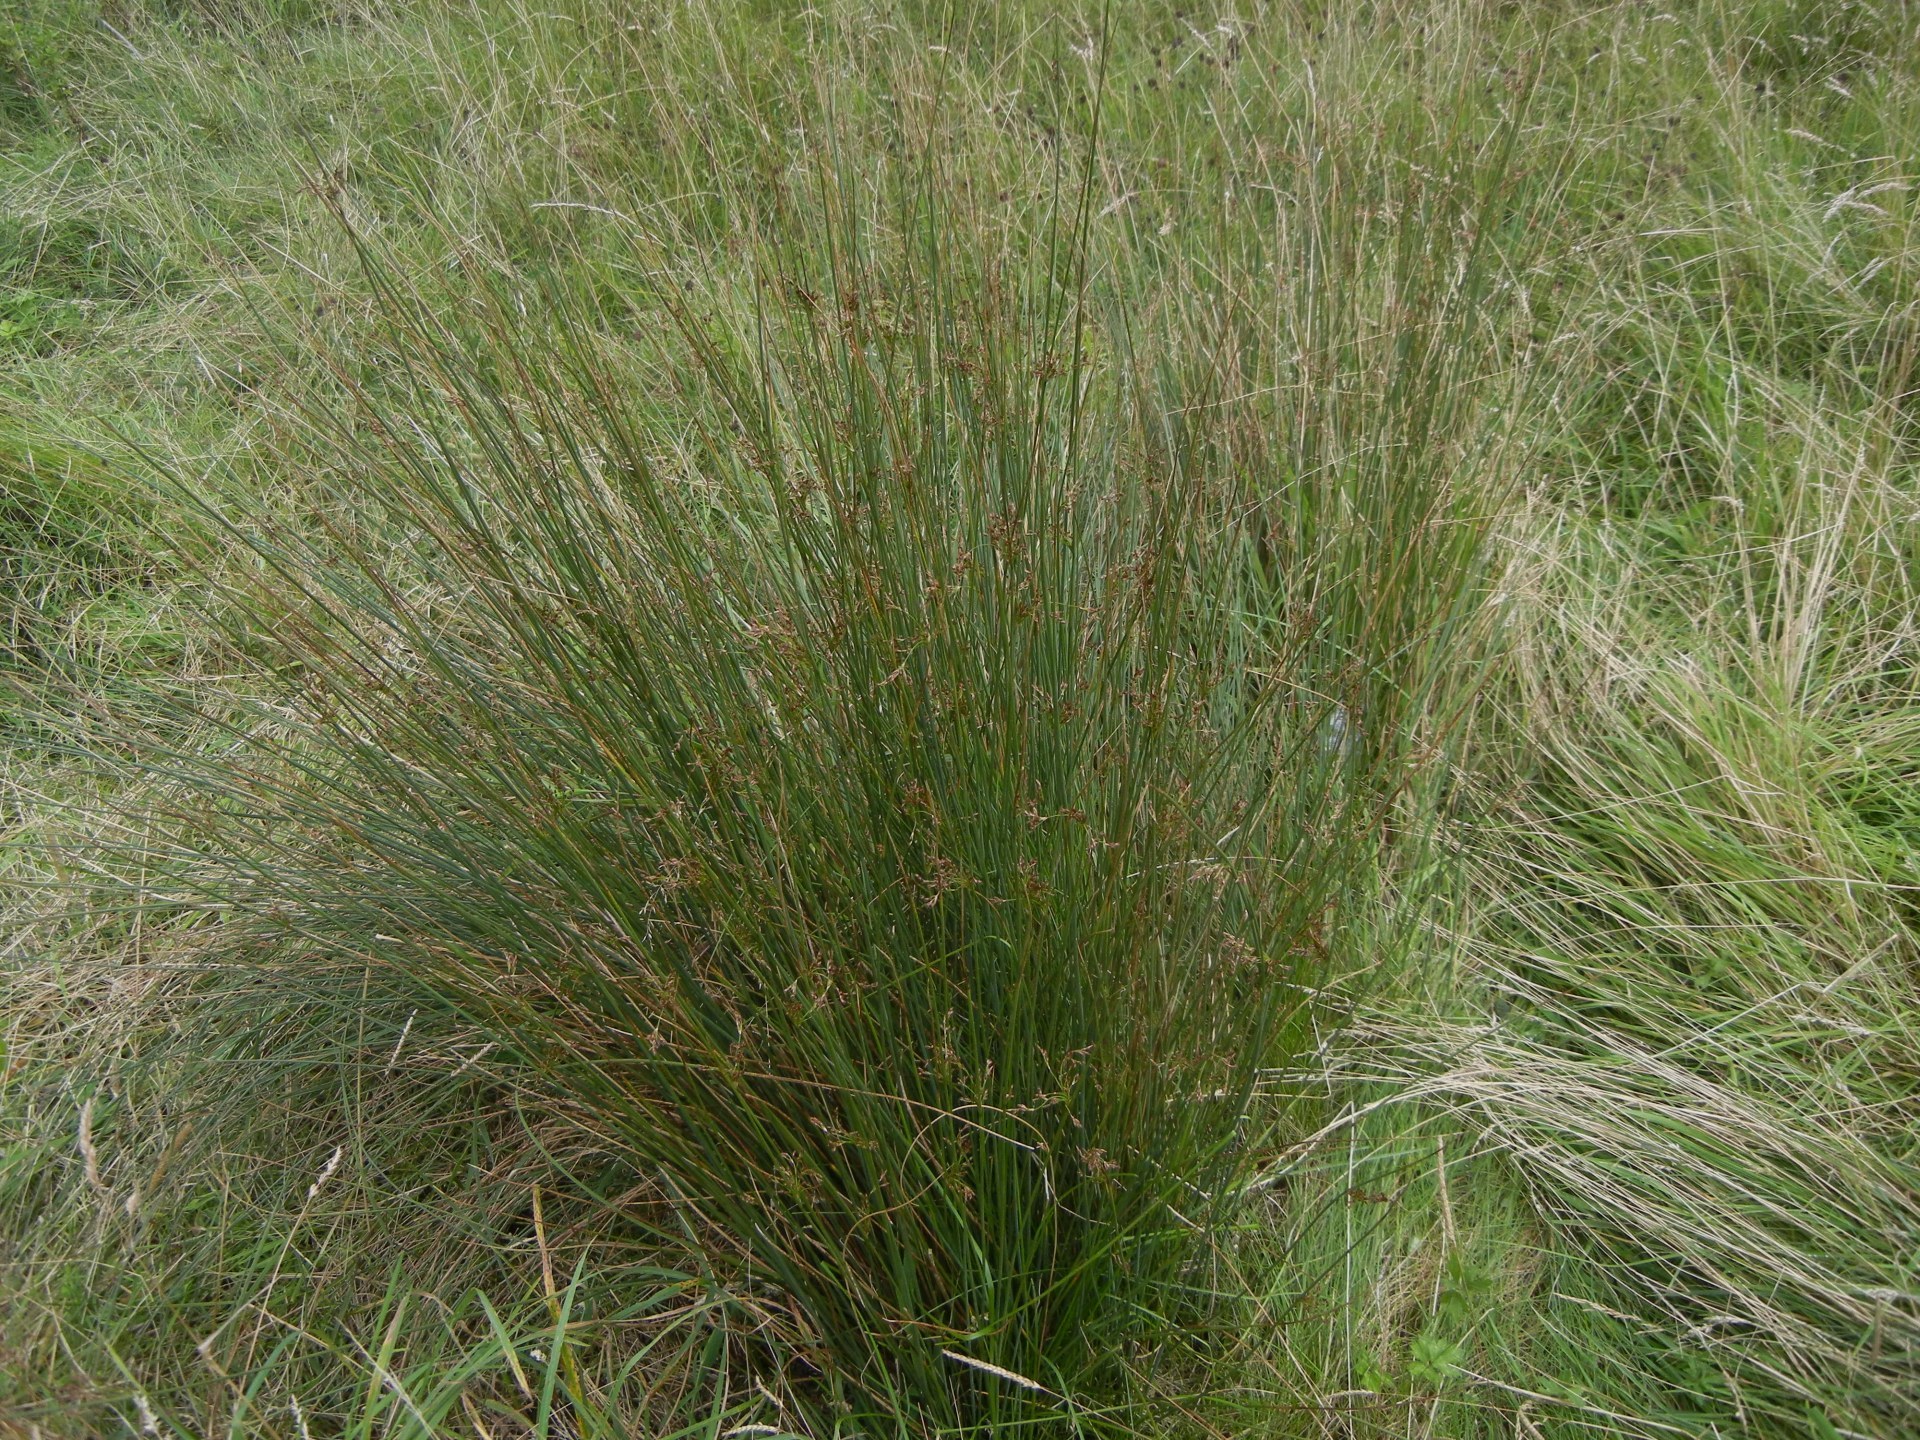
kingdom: Plantae
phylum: Tracheophyta
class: Liliopsida
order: Poales
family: Juncaceae
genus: Juncus
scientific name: Juncus inflexus
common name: Hard rush
